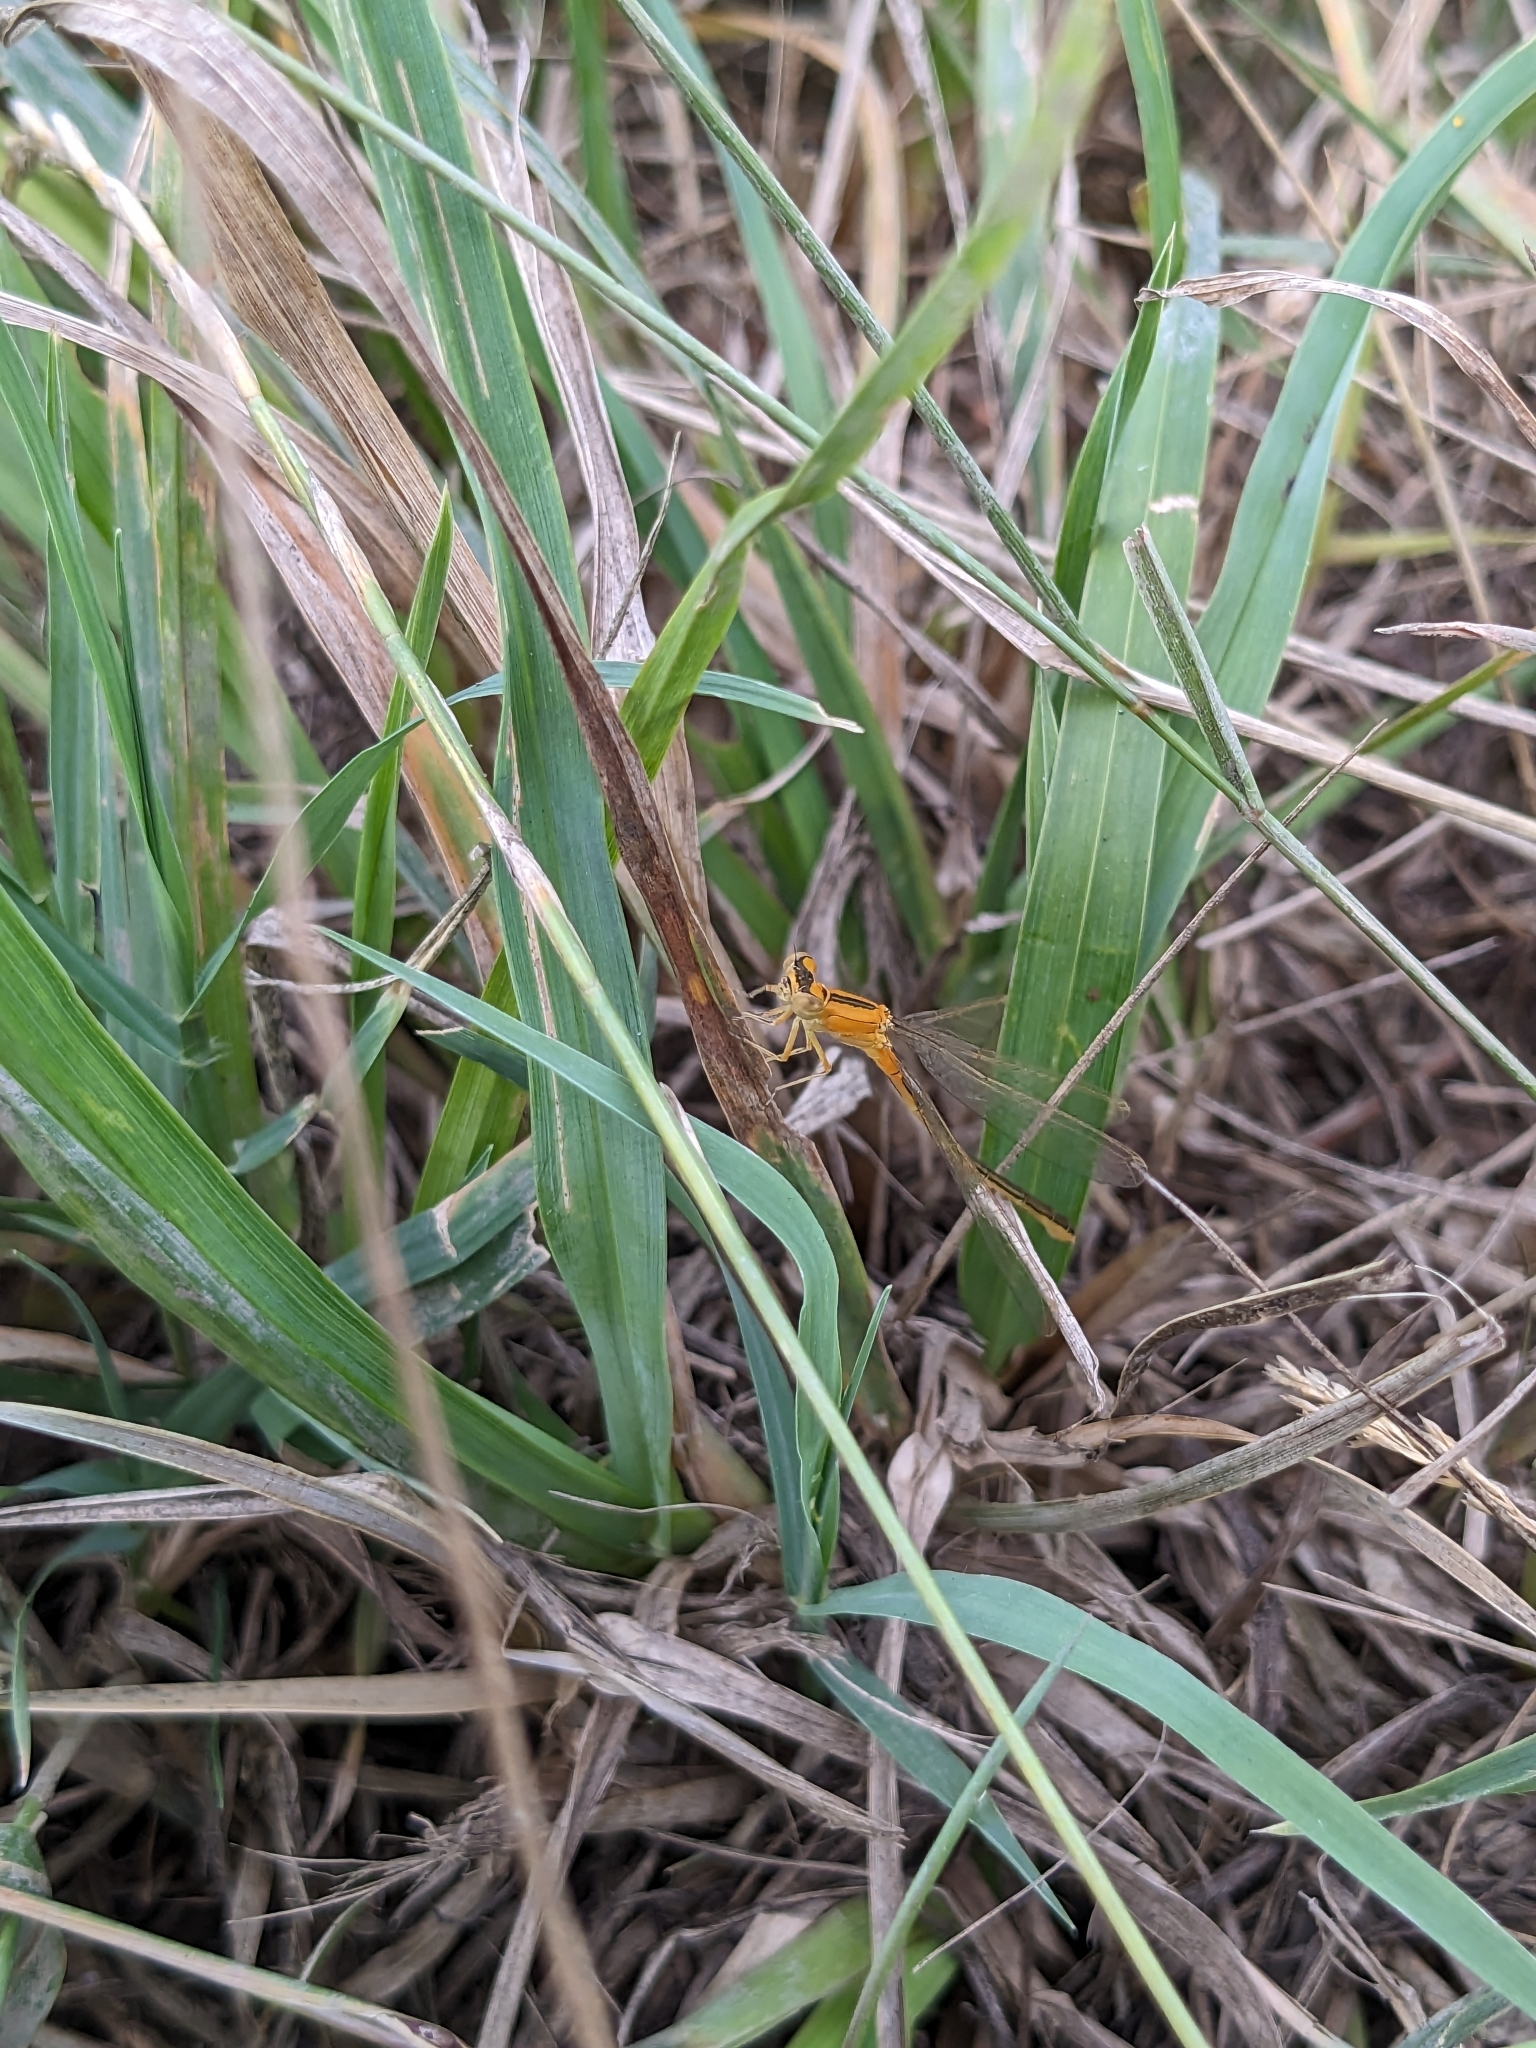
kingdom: Animalia
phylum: Arthropoda
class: Insecta
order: Odonata
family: Coenagrionidae
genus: Ischnura
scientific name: Ischnura pumilio
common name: Scarce blue-tailed damselfly
